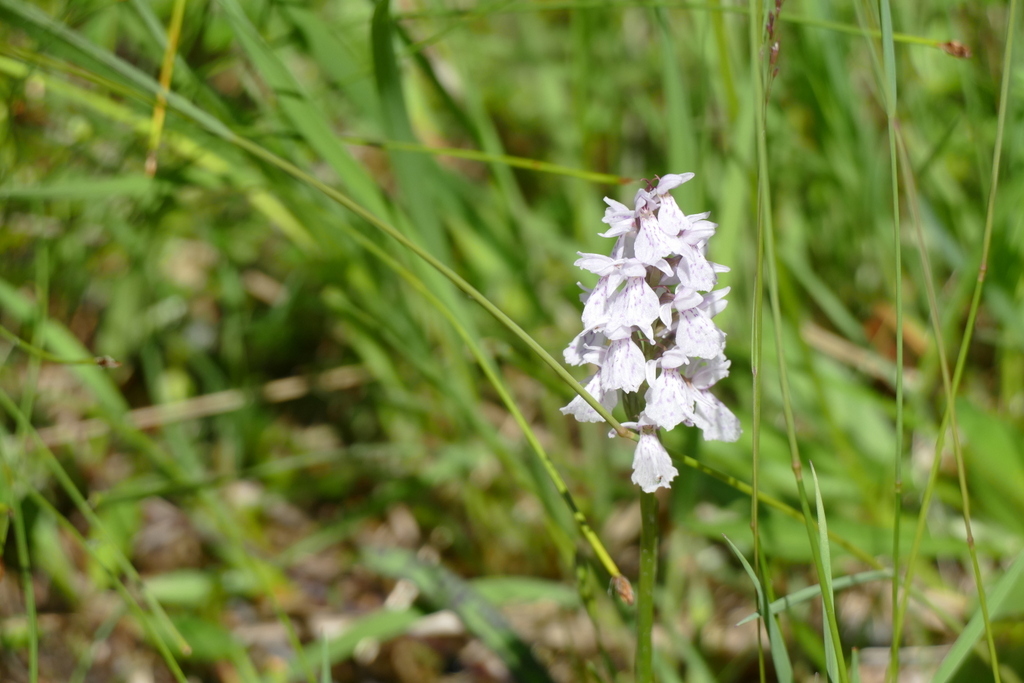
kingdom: Plantae
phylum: Tracheophyta
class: Liliopsida
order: Asparagales
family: Orchidaceae
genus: Dactylorhiza
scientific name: Dactylorhiza maculata
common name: Heath spotted-orchid
